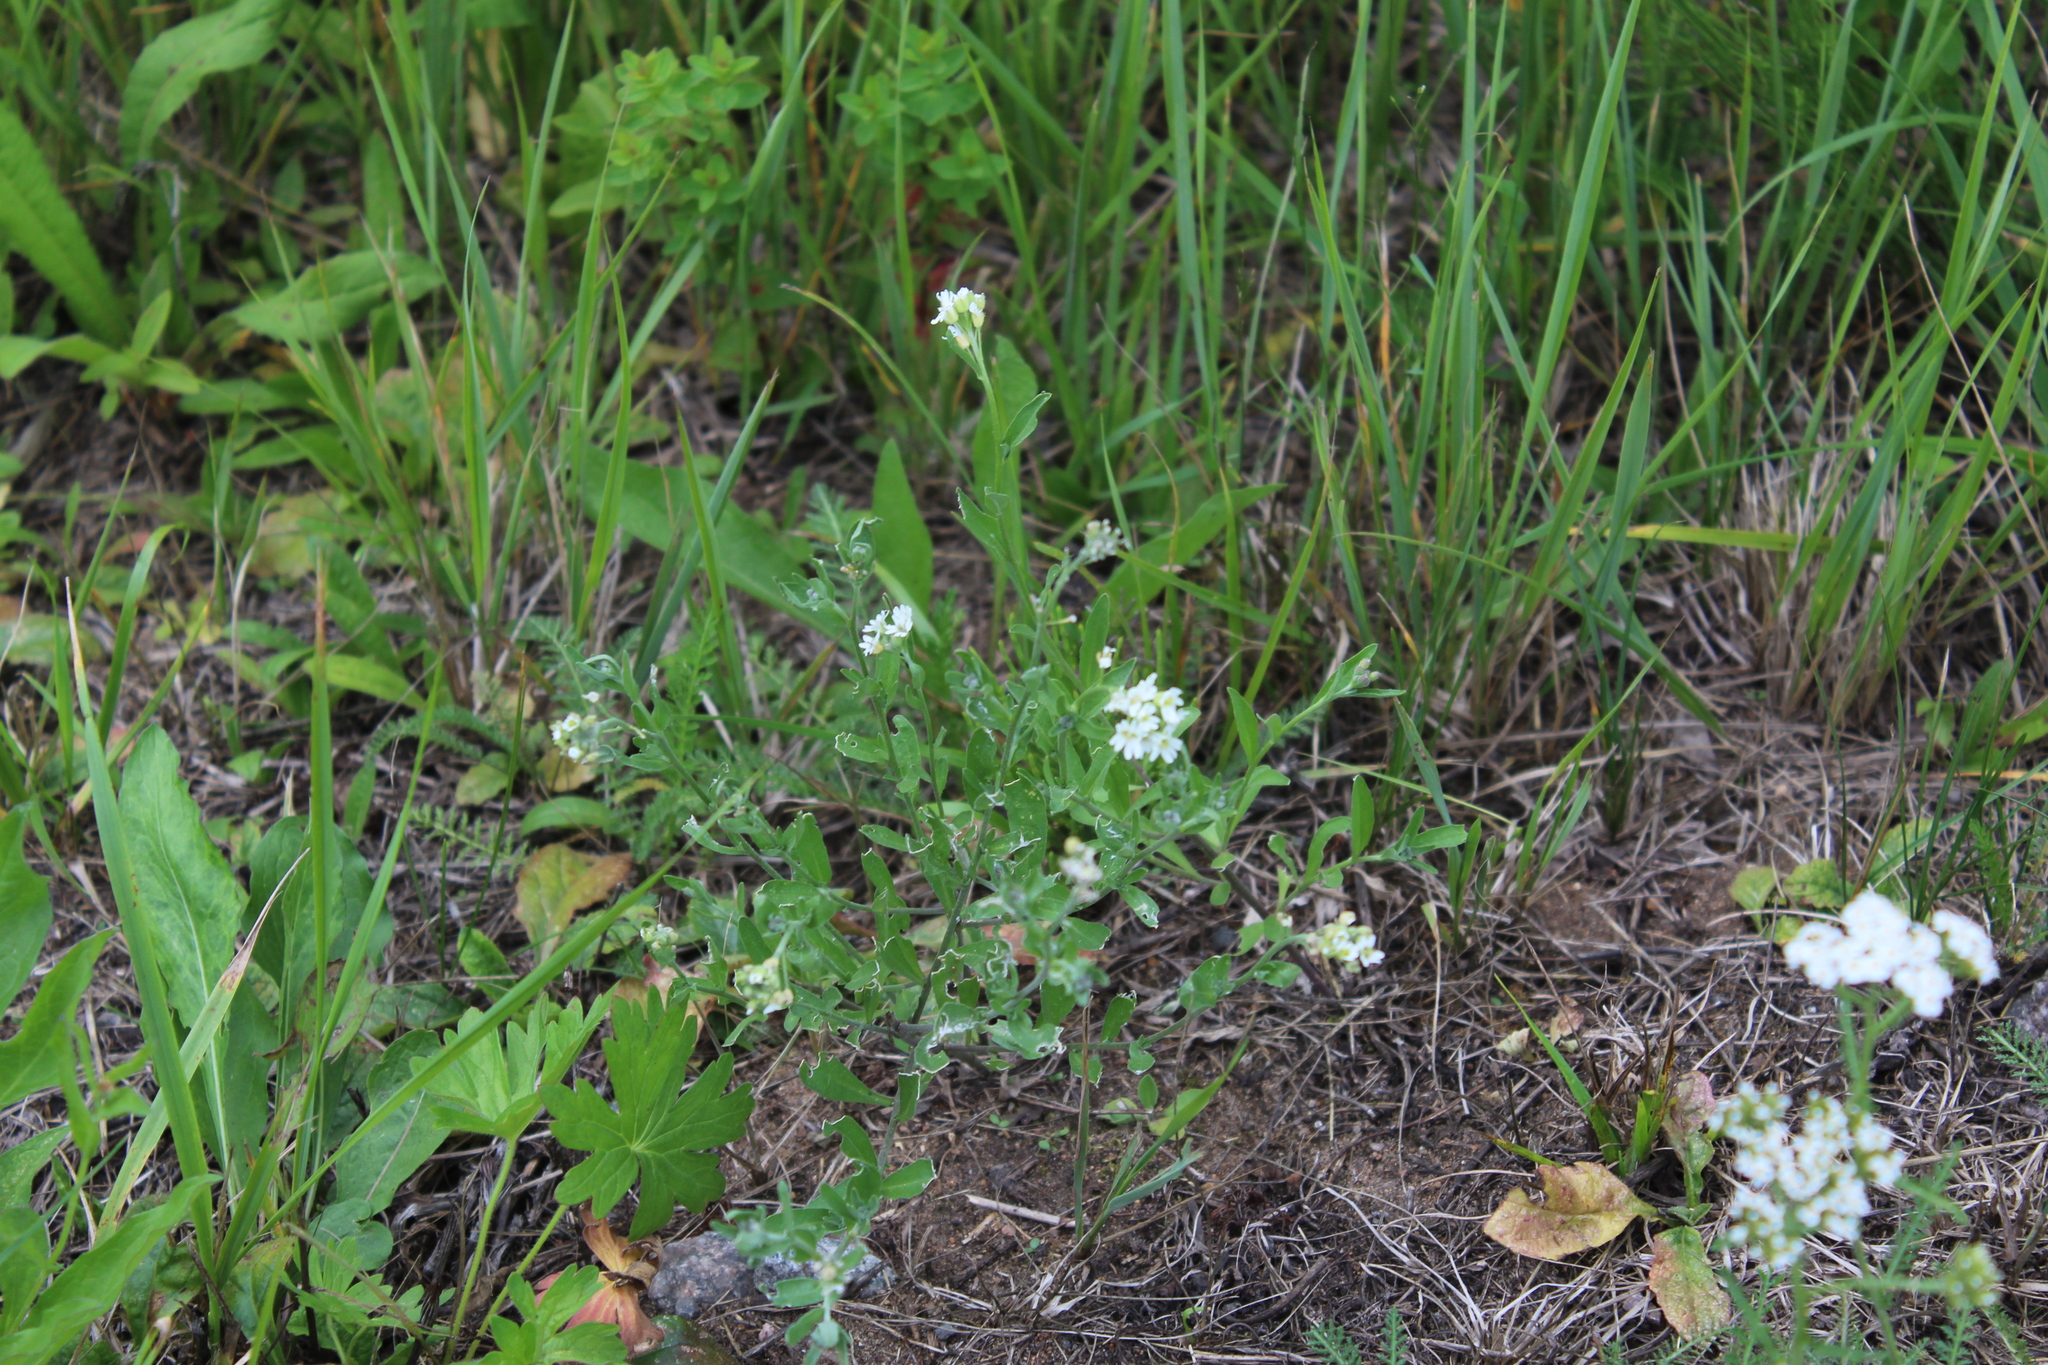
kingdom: Plantae
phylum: Tracheophyta
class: Magnoliopsida
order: Brassicales
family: Brassicaceae
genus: Berteroa
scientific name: Berteroa incana
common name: Hoary alison
